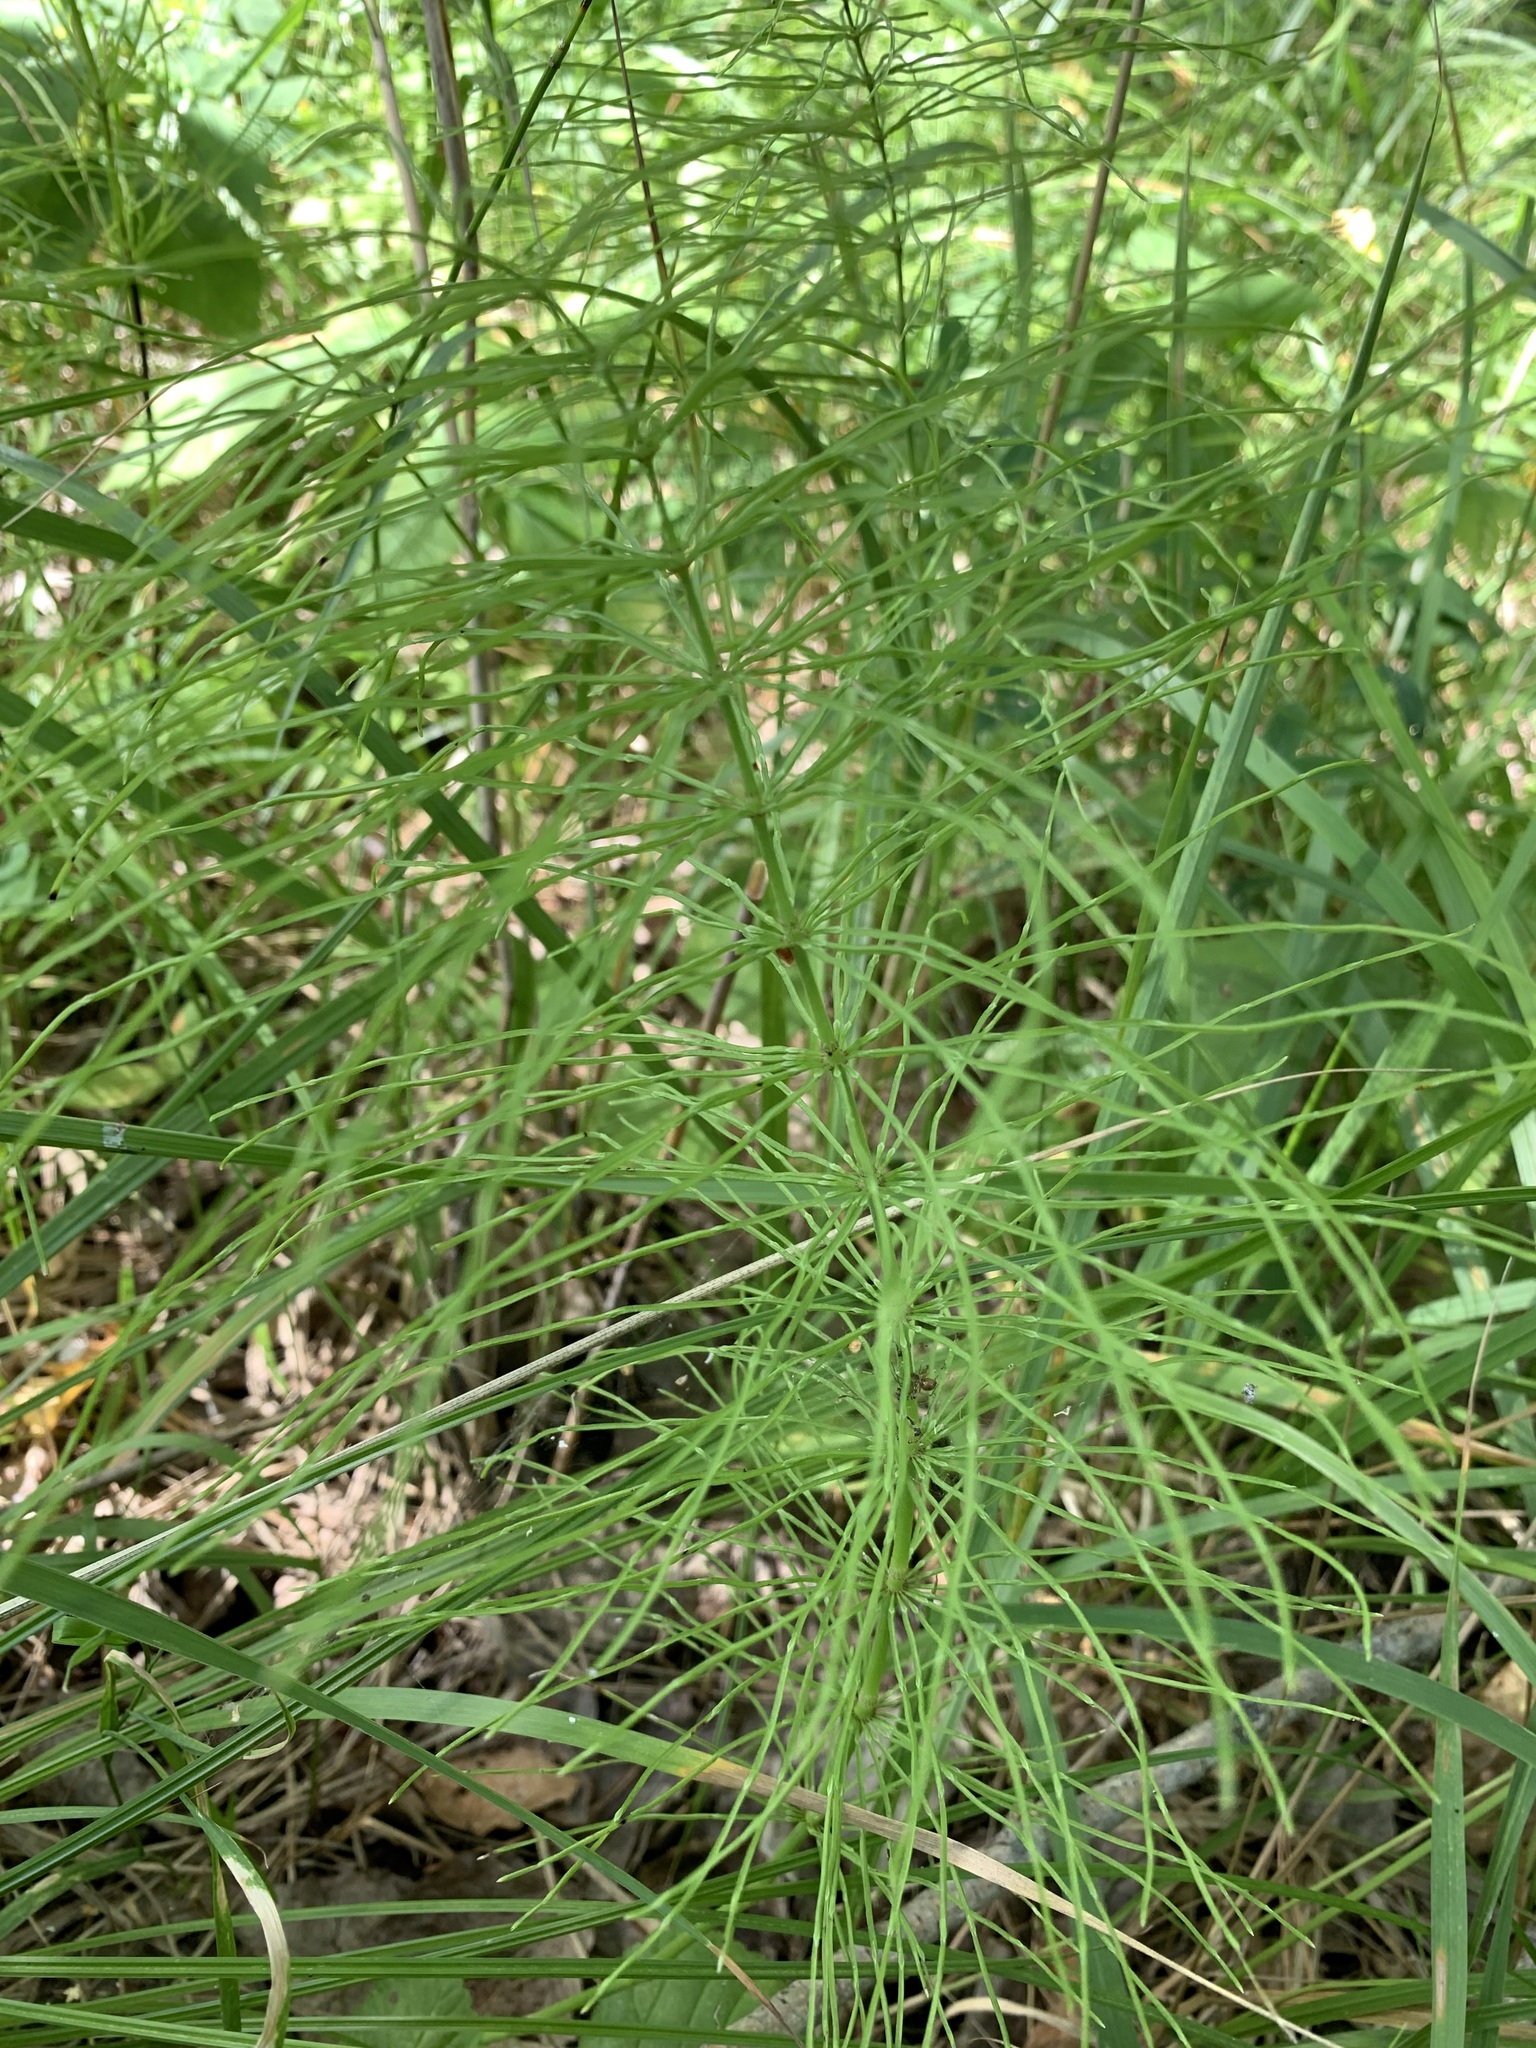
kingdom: Plantae
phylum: Tracheophyta
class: Polypodiopsida
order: Equisetales
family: Equisetaceae
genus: Equisetum
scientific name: Equisetum pratense
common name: Meadow horsetail
